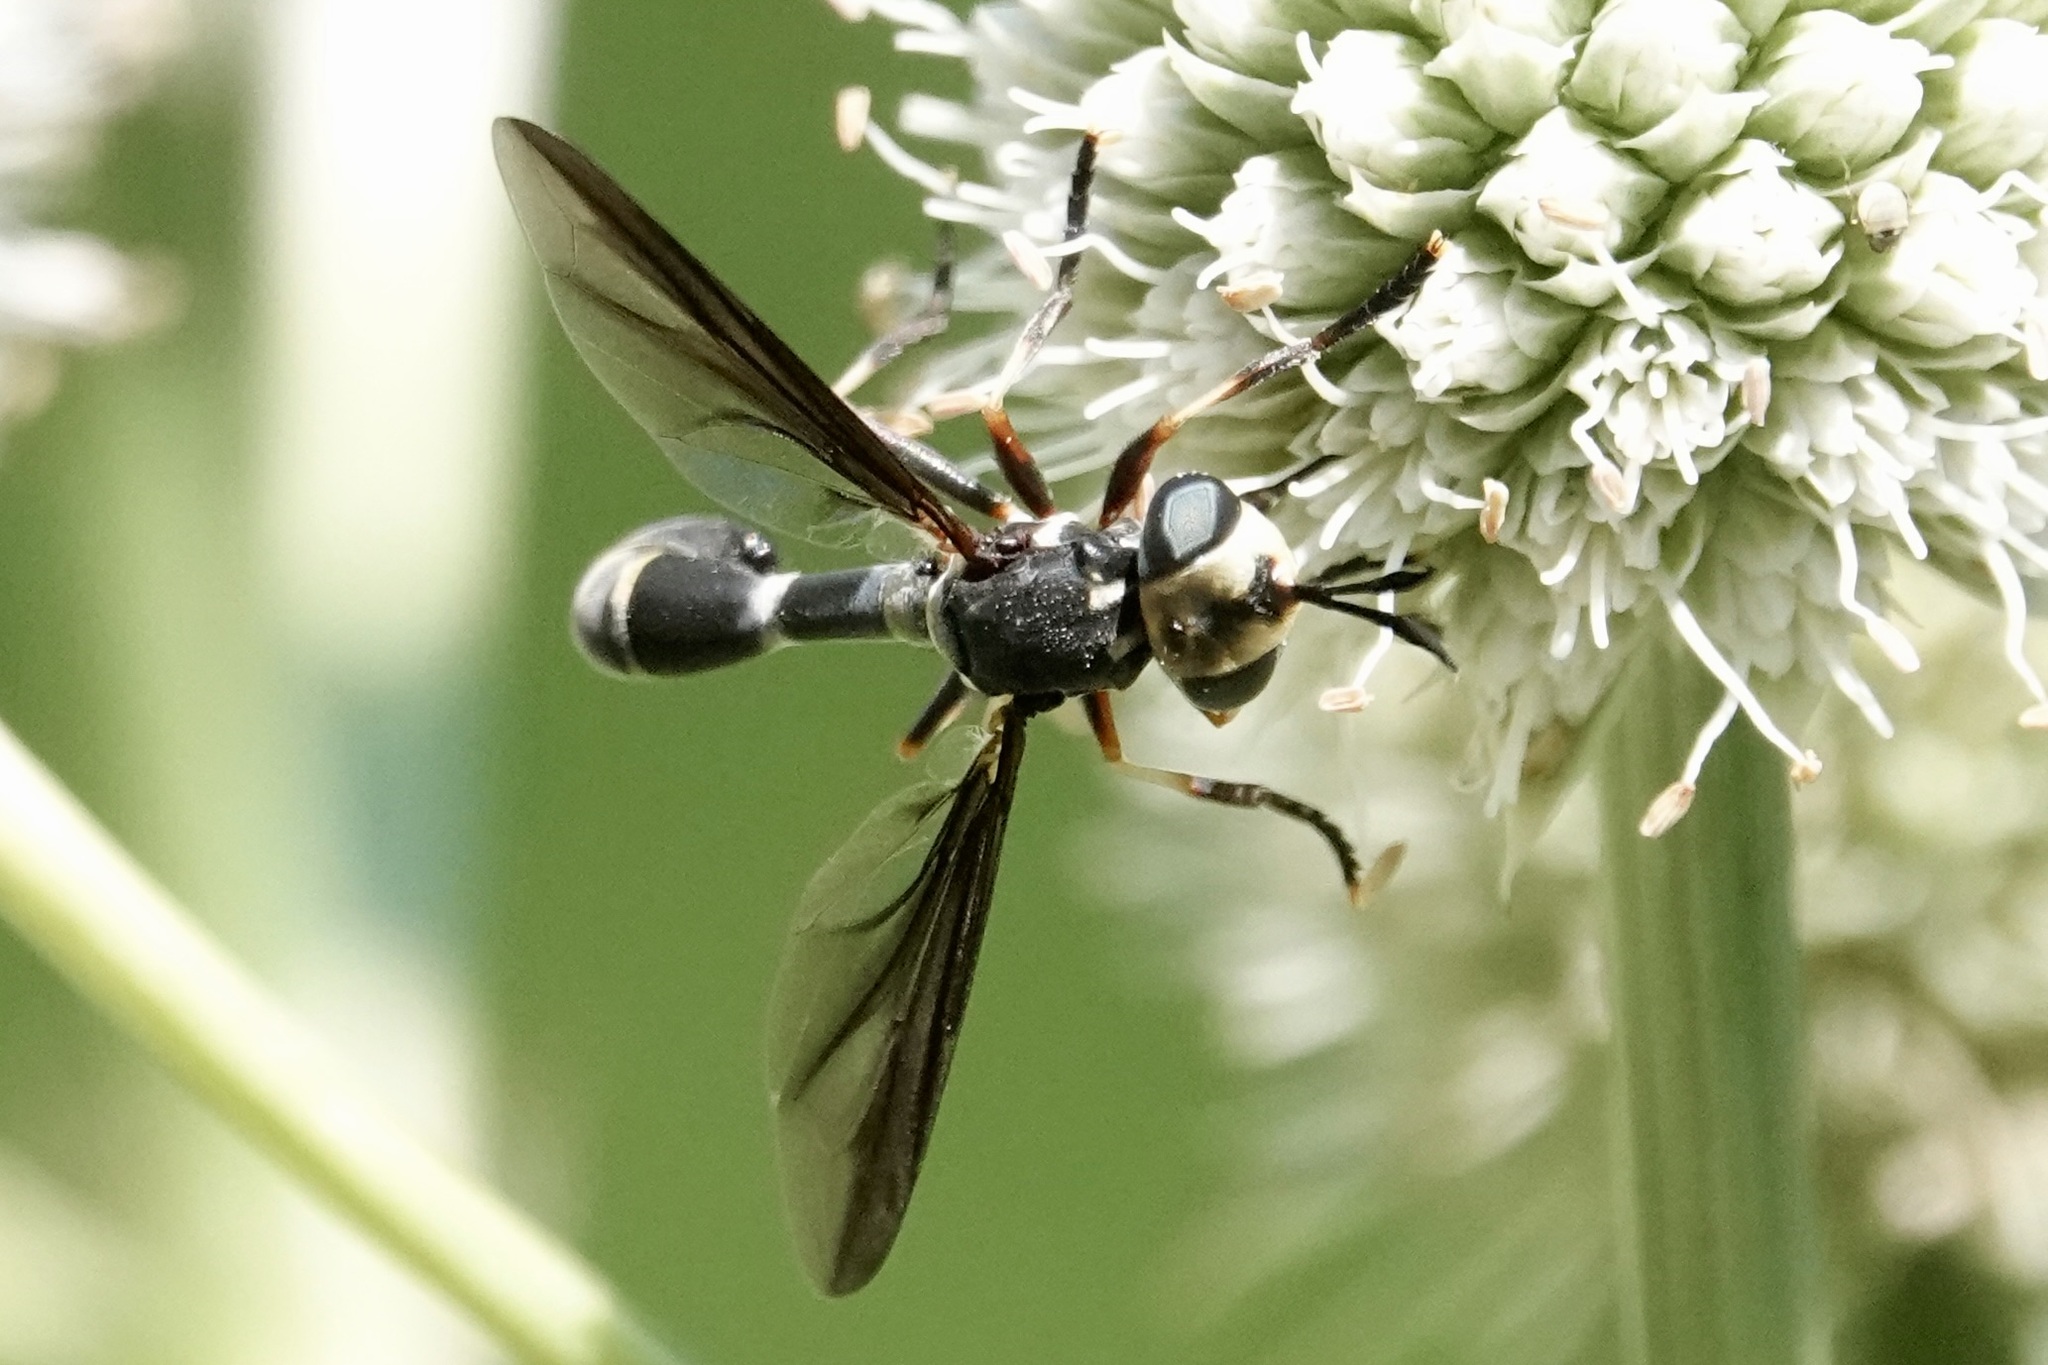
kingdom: Animalia
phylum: Arthropoda
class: Insecta
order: Diptera
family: Conopidae
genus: Physoconops
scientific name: Physoconops brachyrhynchus
